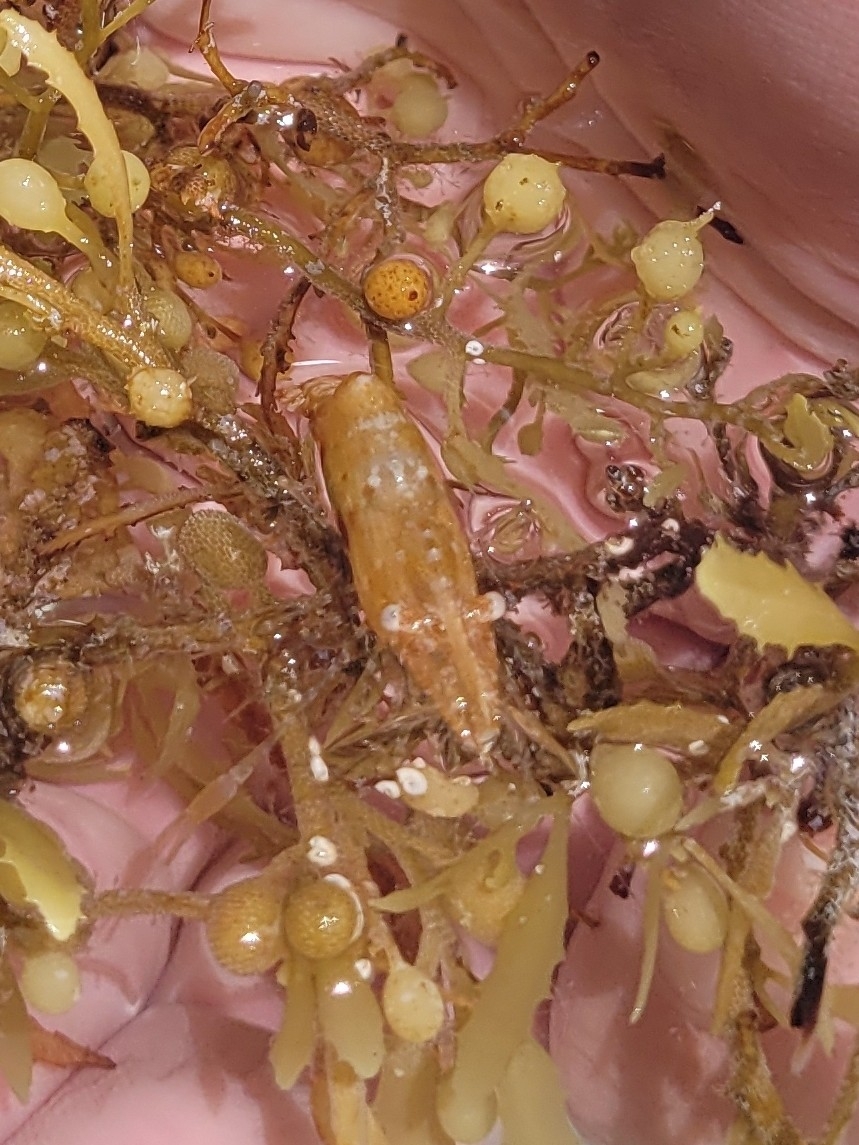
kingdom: Animalia
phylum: Arthropoda
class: Malacostraca
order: Decapoda
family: Palaemonidae
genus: Leander
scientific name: Leander tenuicornis
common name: Brown glass shrimp
